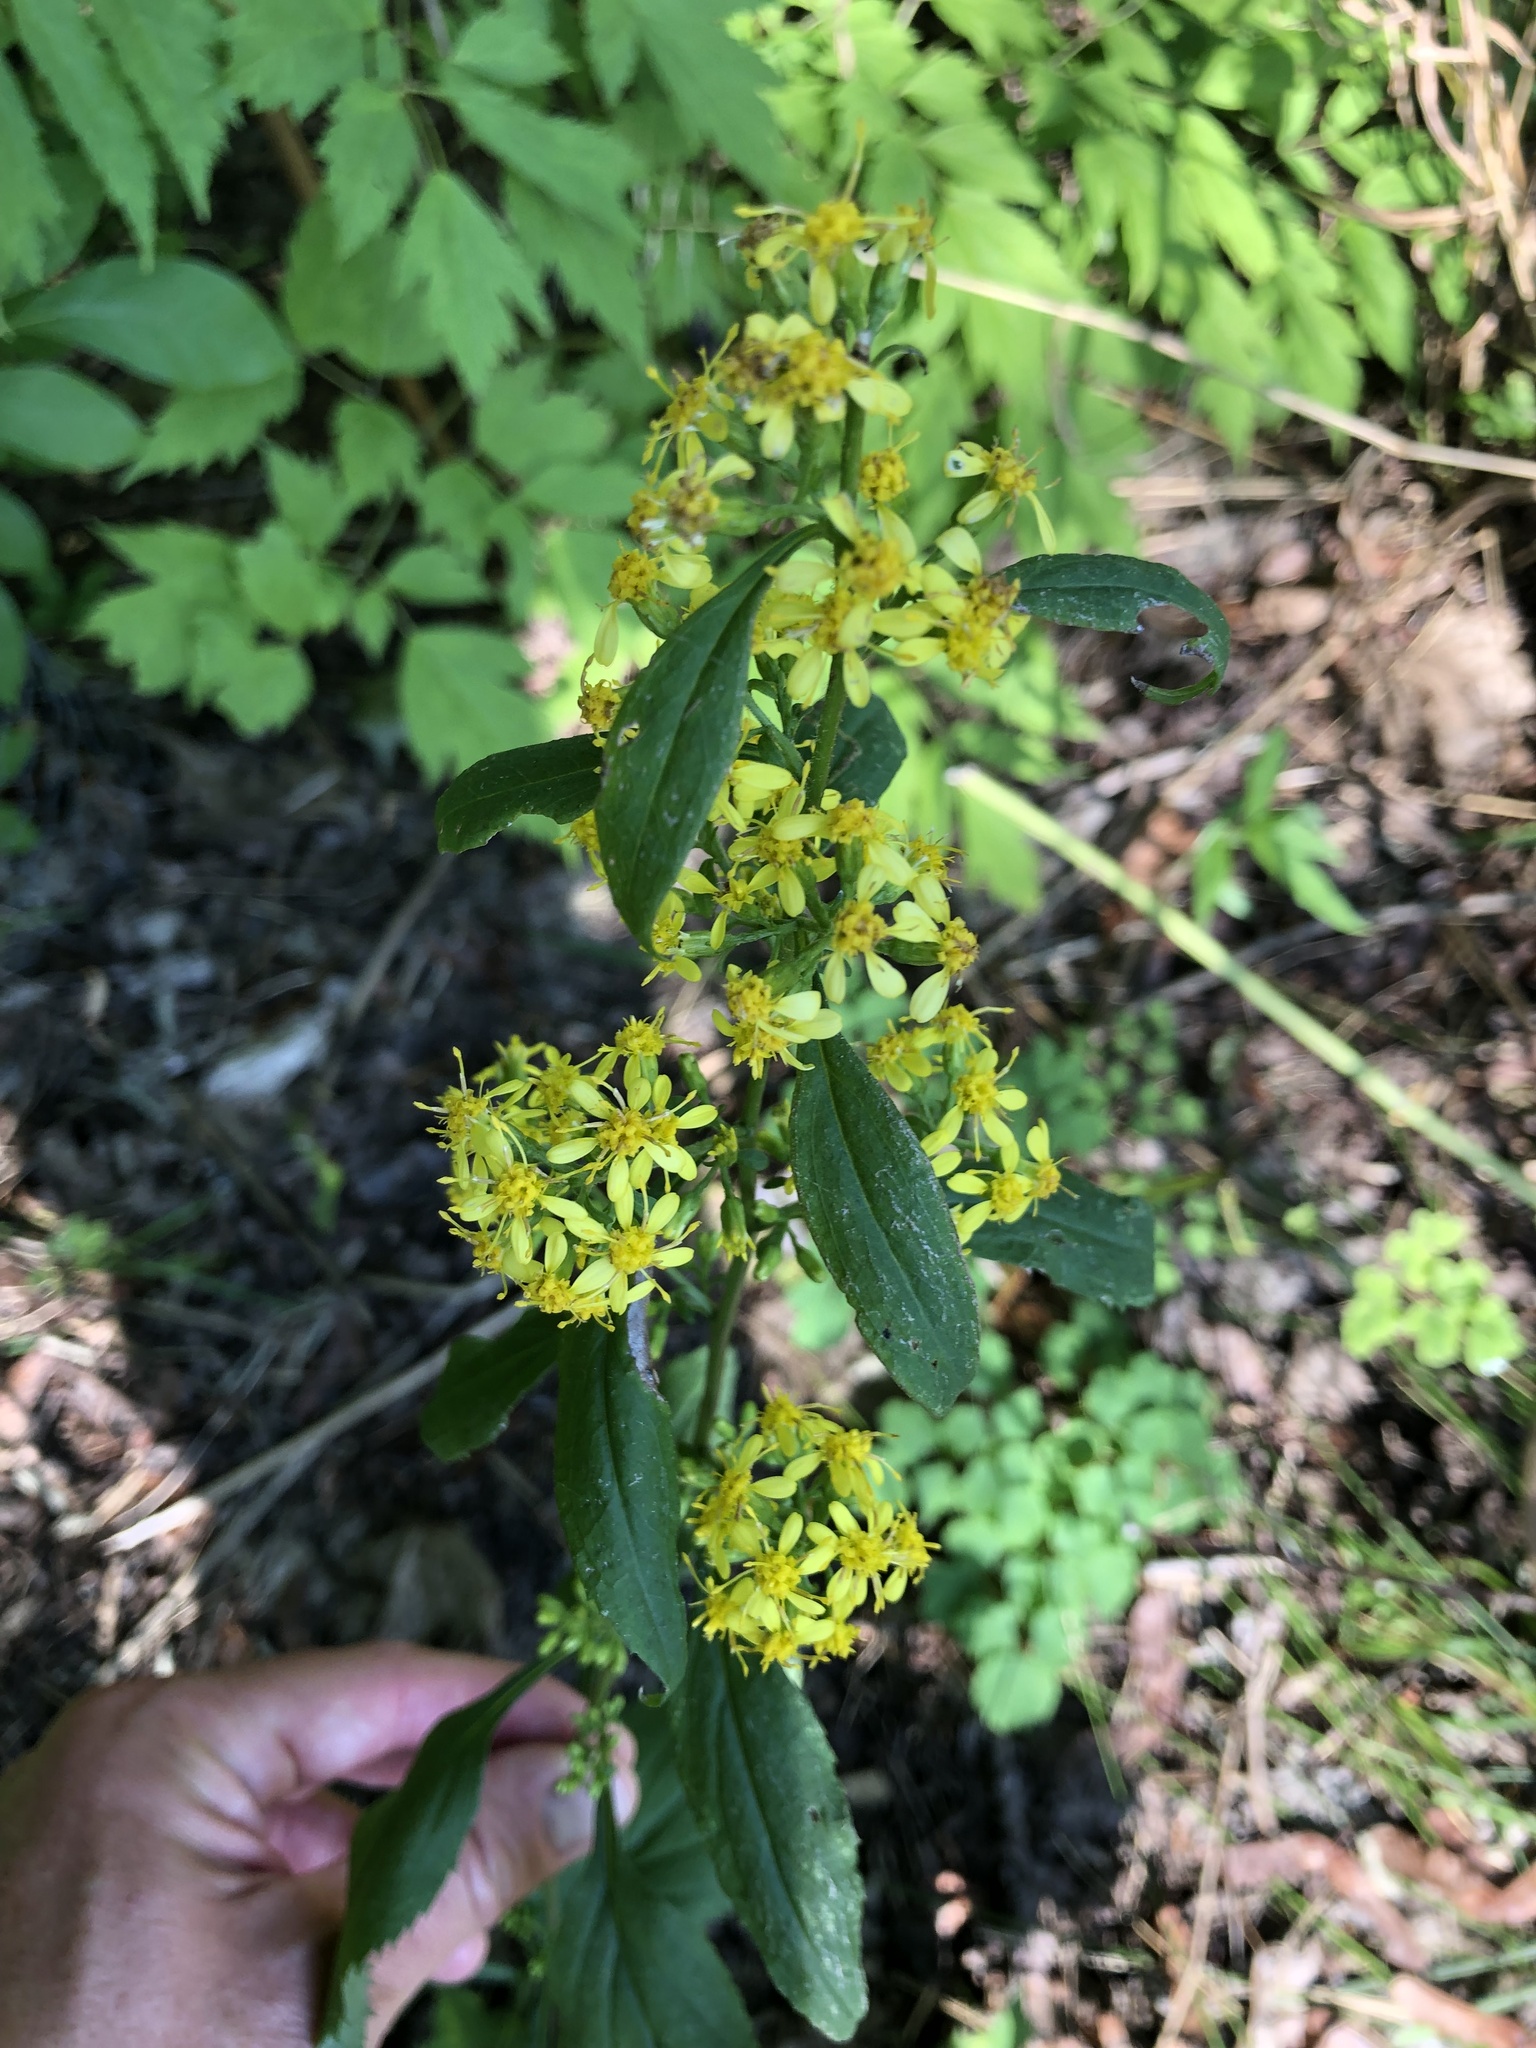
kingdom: Plantae
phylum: Tracheophyta
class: Magnoliopsida
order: Asterales
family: Asteraceae
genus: Solidago
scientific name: Solidago flexicaulis
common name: Zig-zag goldenrod
